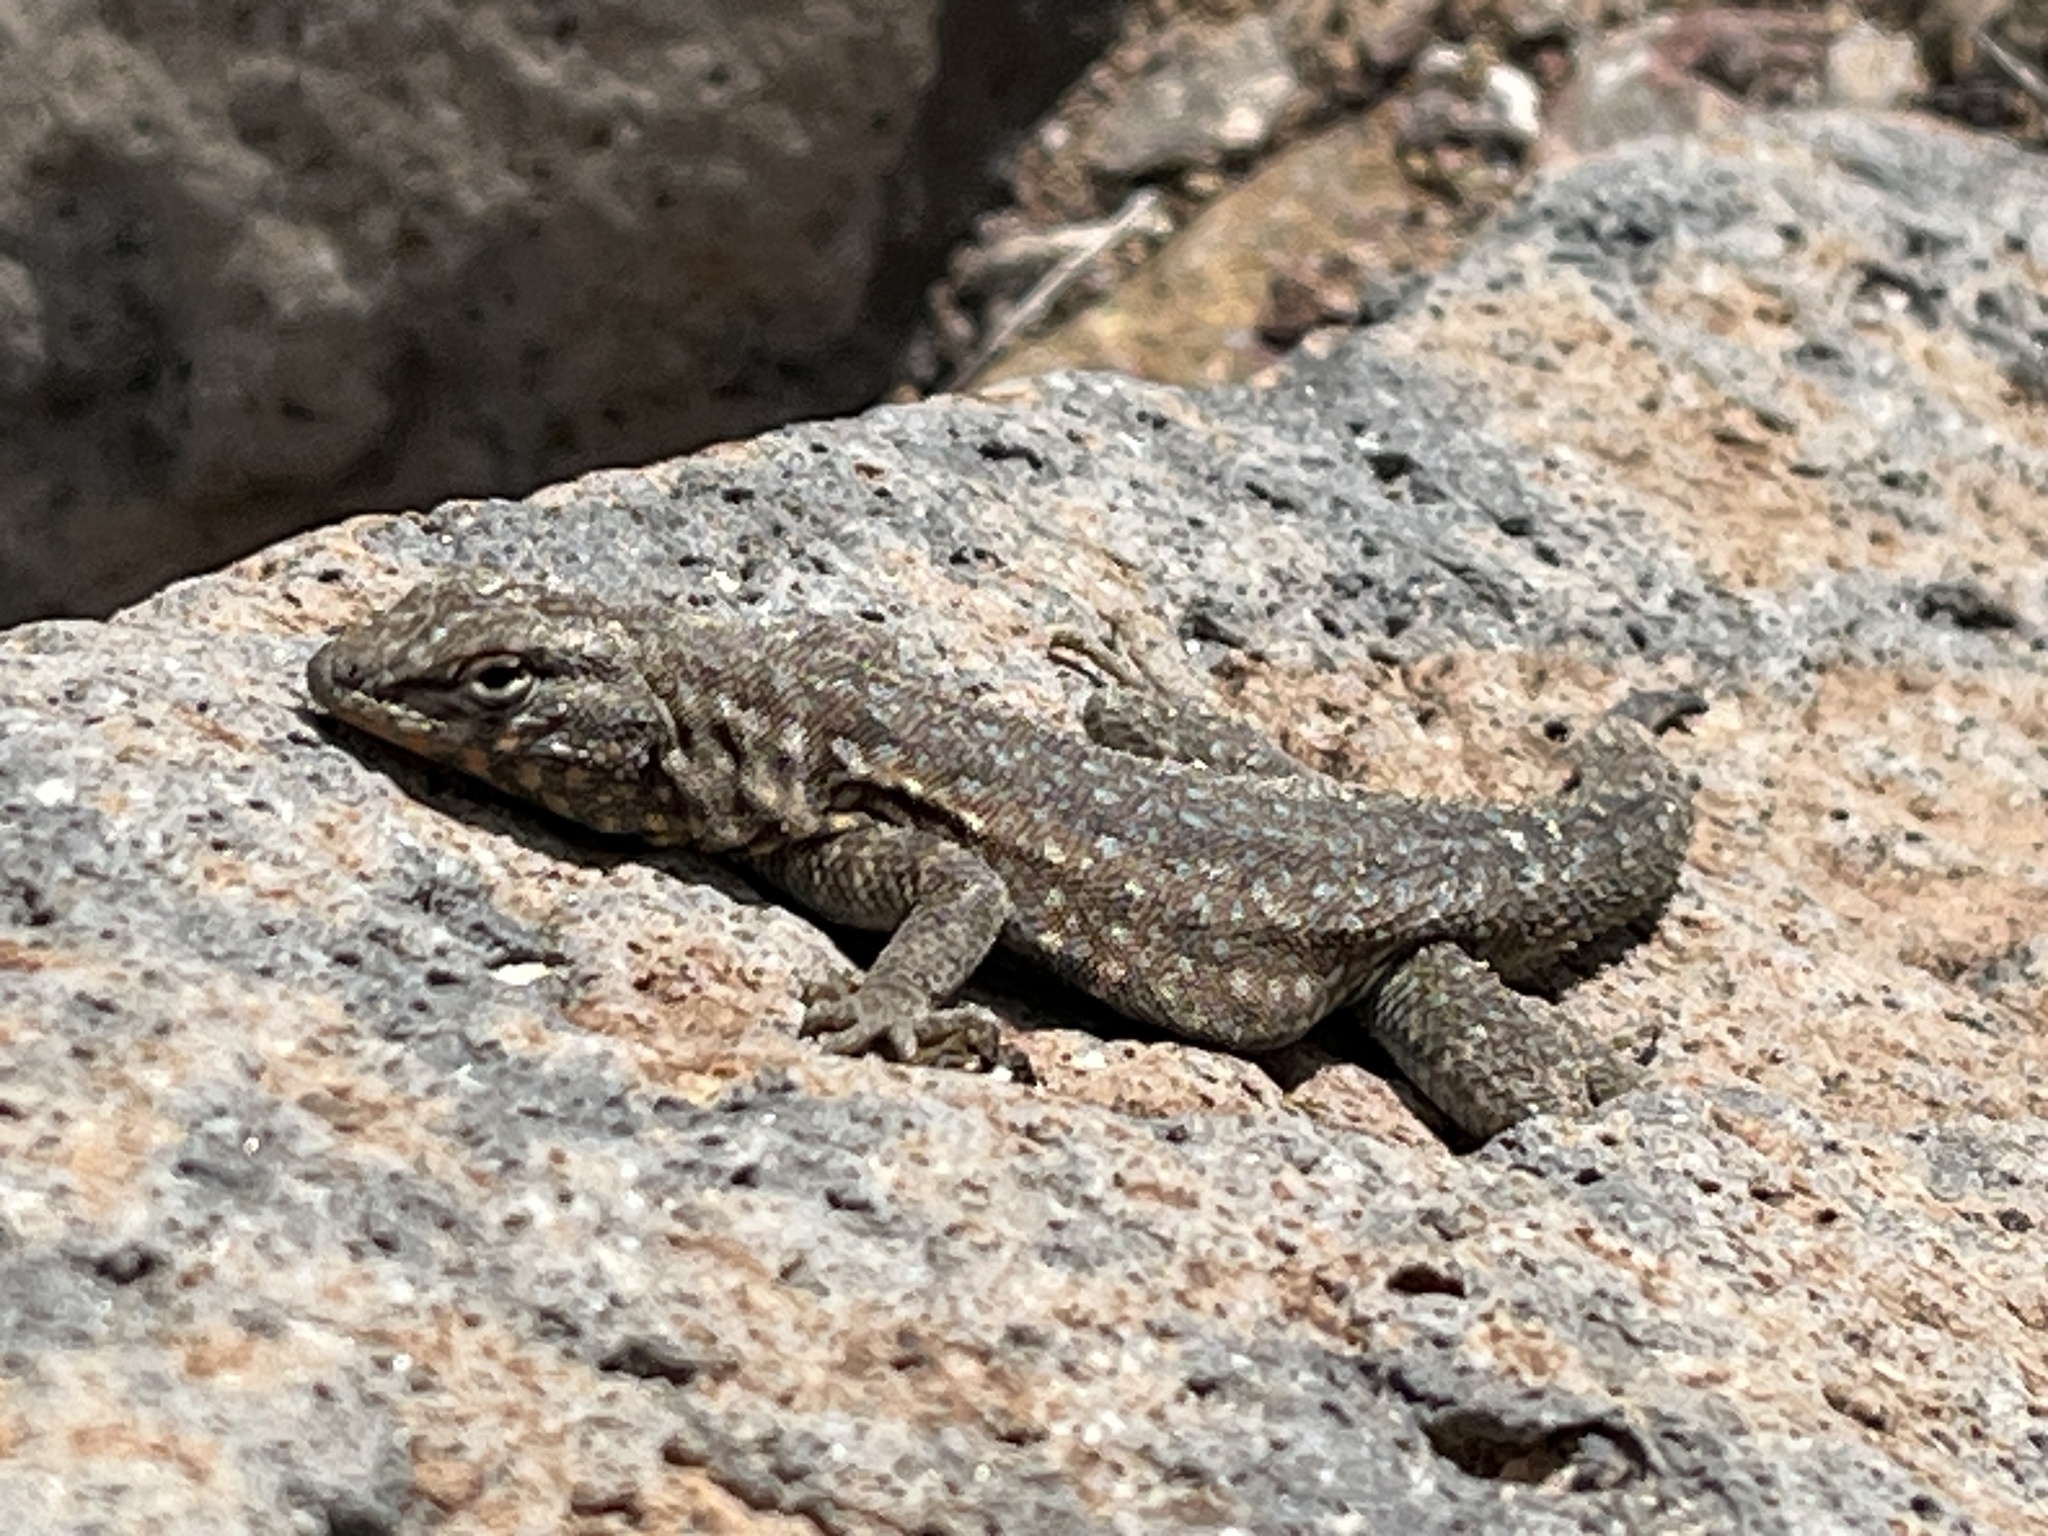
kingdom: Animalia
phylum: Chordata
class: Squamata
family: Phrynosomatidae
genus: Uta
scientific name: Uta stansburiana
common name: Side-blotched lizard
